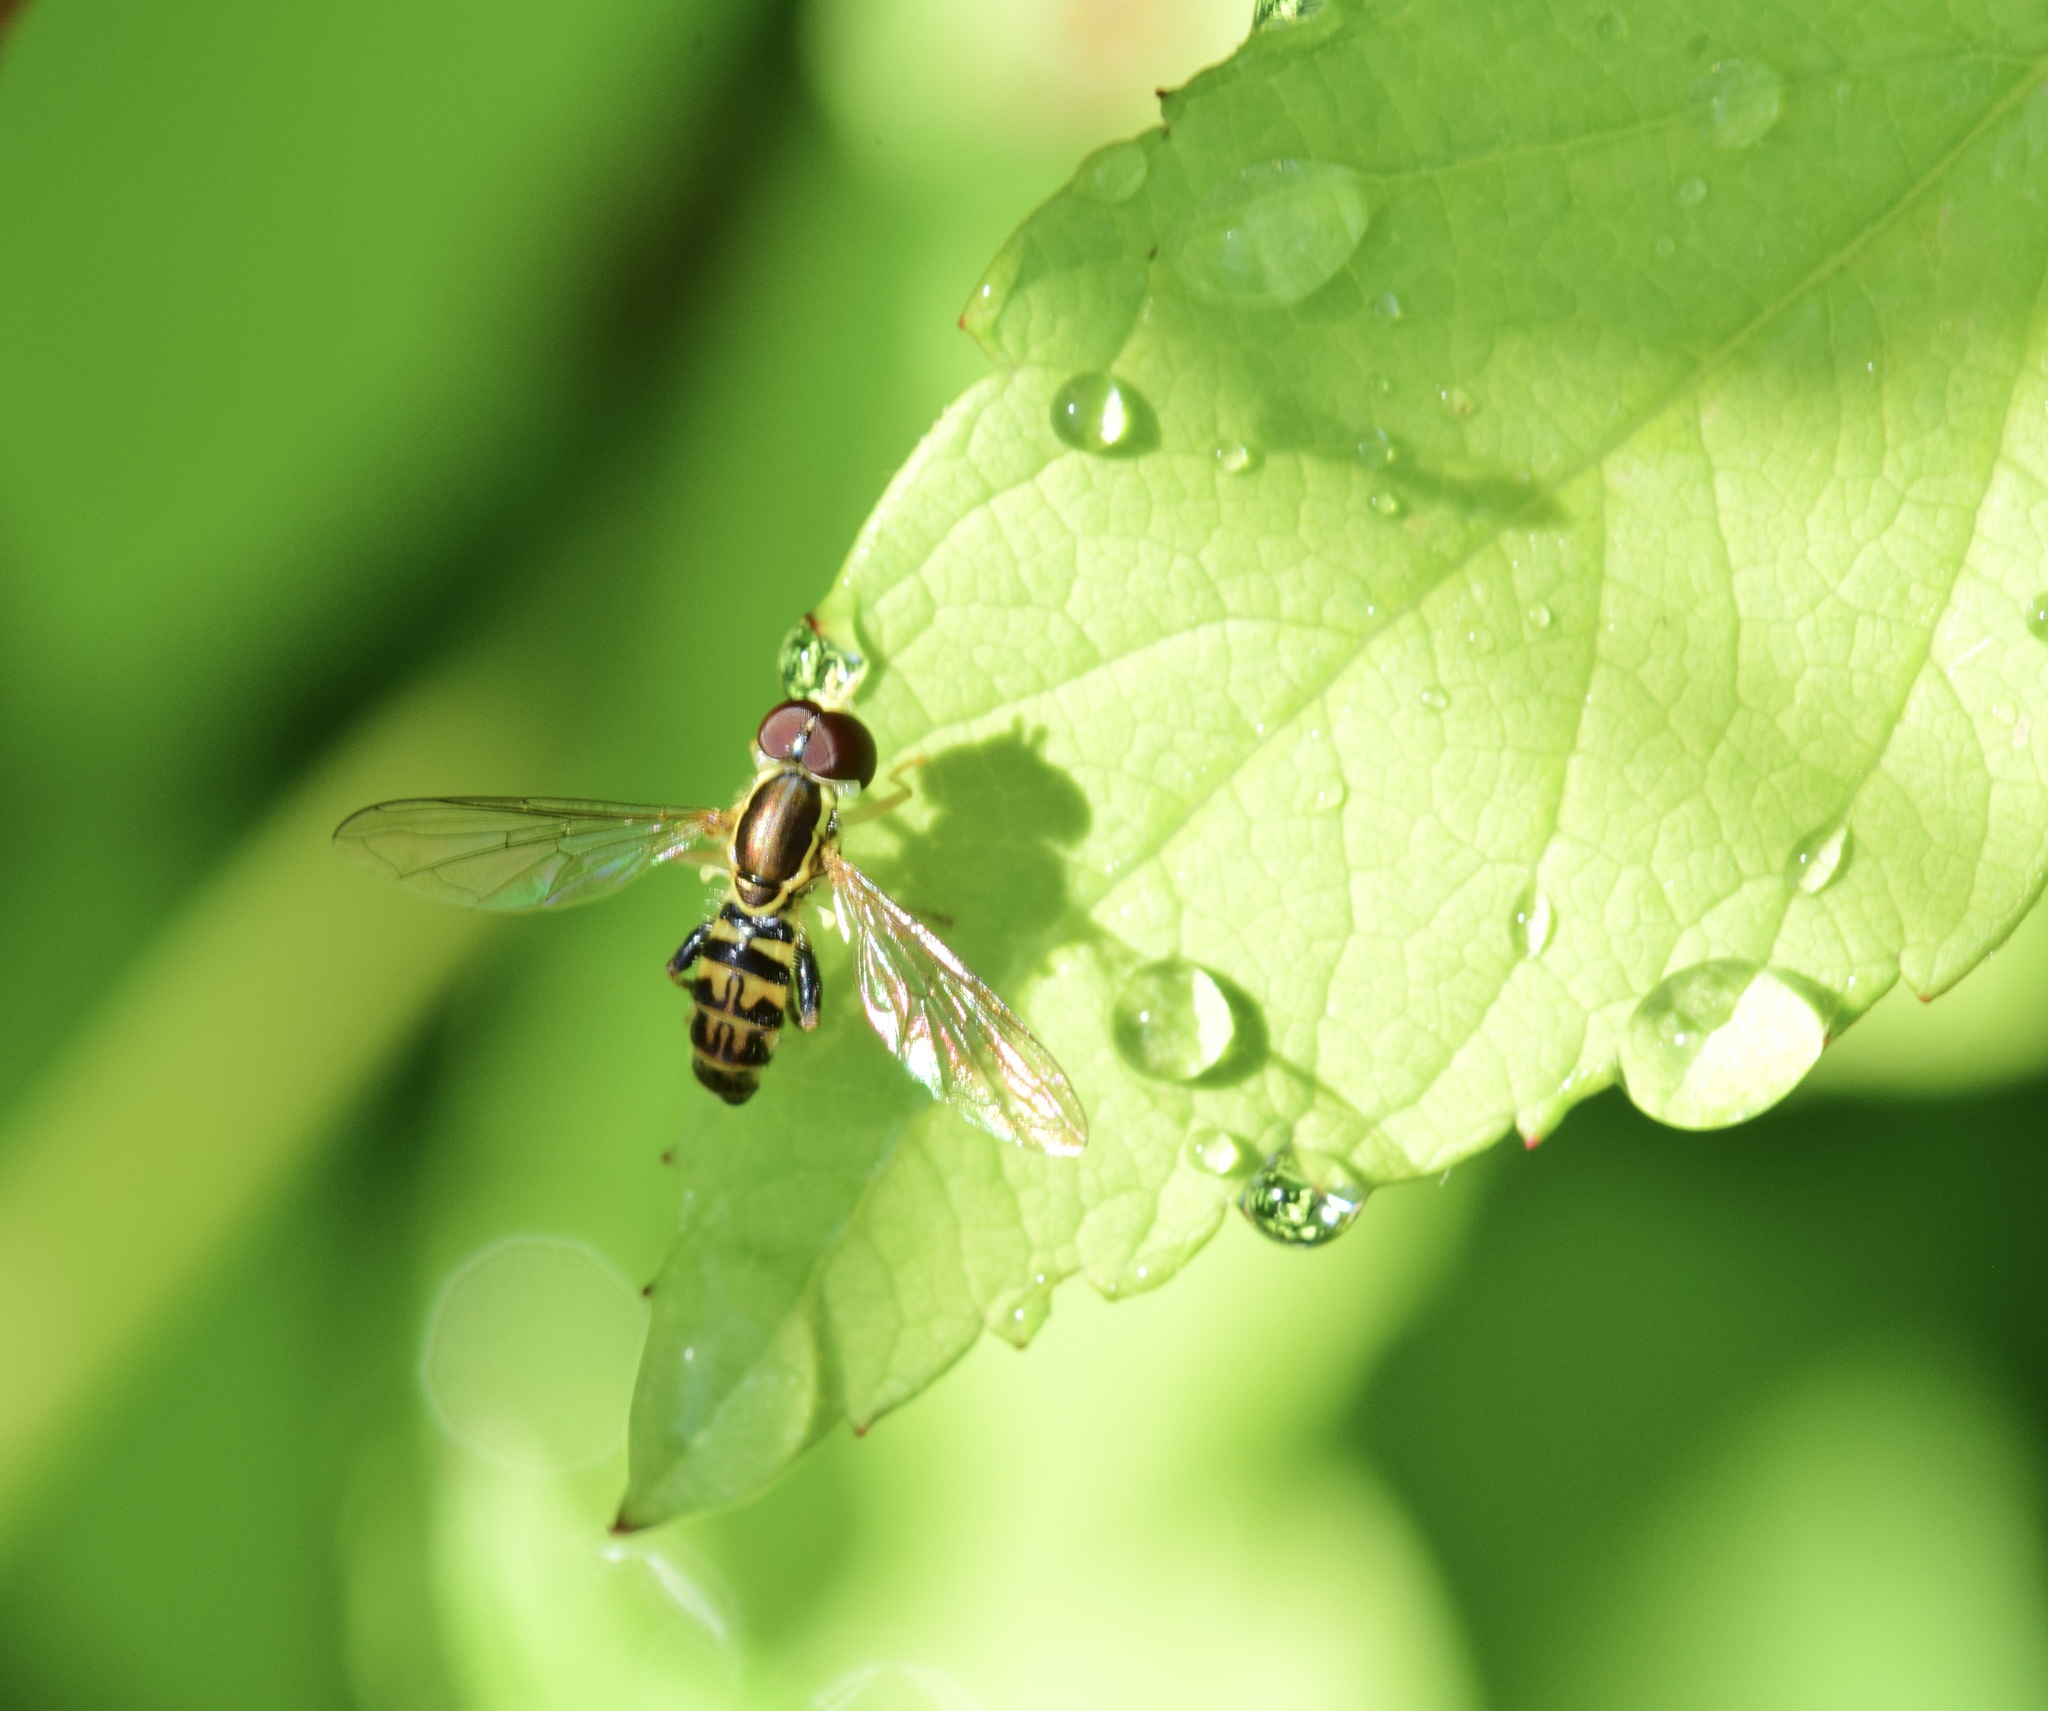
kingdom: Animalia
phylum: Arthropoda
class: Insecta
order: Diptera
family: Syrphidae
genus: Toxomerus
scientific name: Toxomerus marginatus
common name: Syrphid fly
